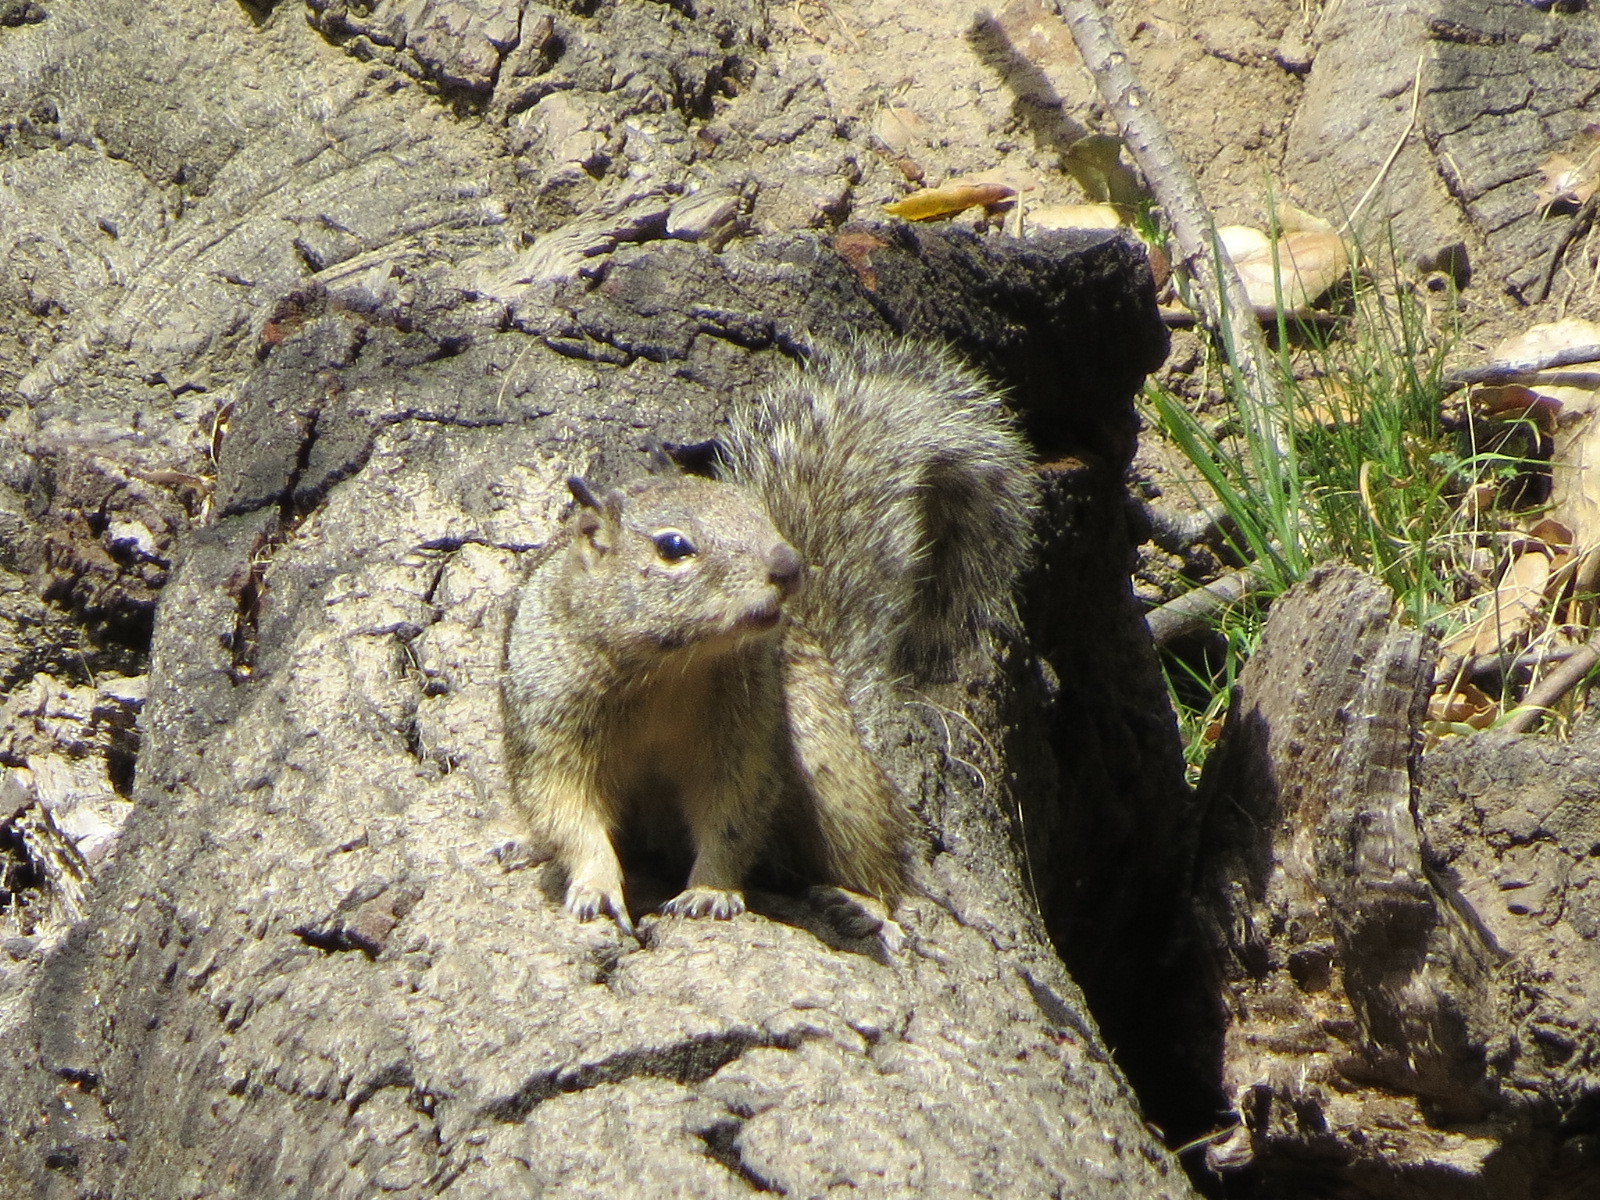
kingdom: Animalia
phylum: Chordata
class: Mammalia
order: Rodentia
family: Sciuridae
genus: Otospermophilus
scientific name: Otospermophilus beecheyi
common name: California ground squirrel
